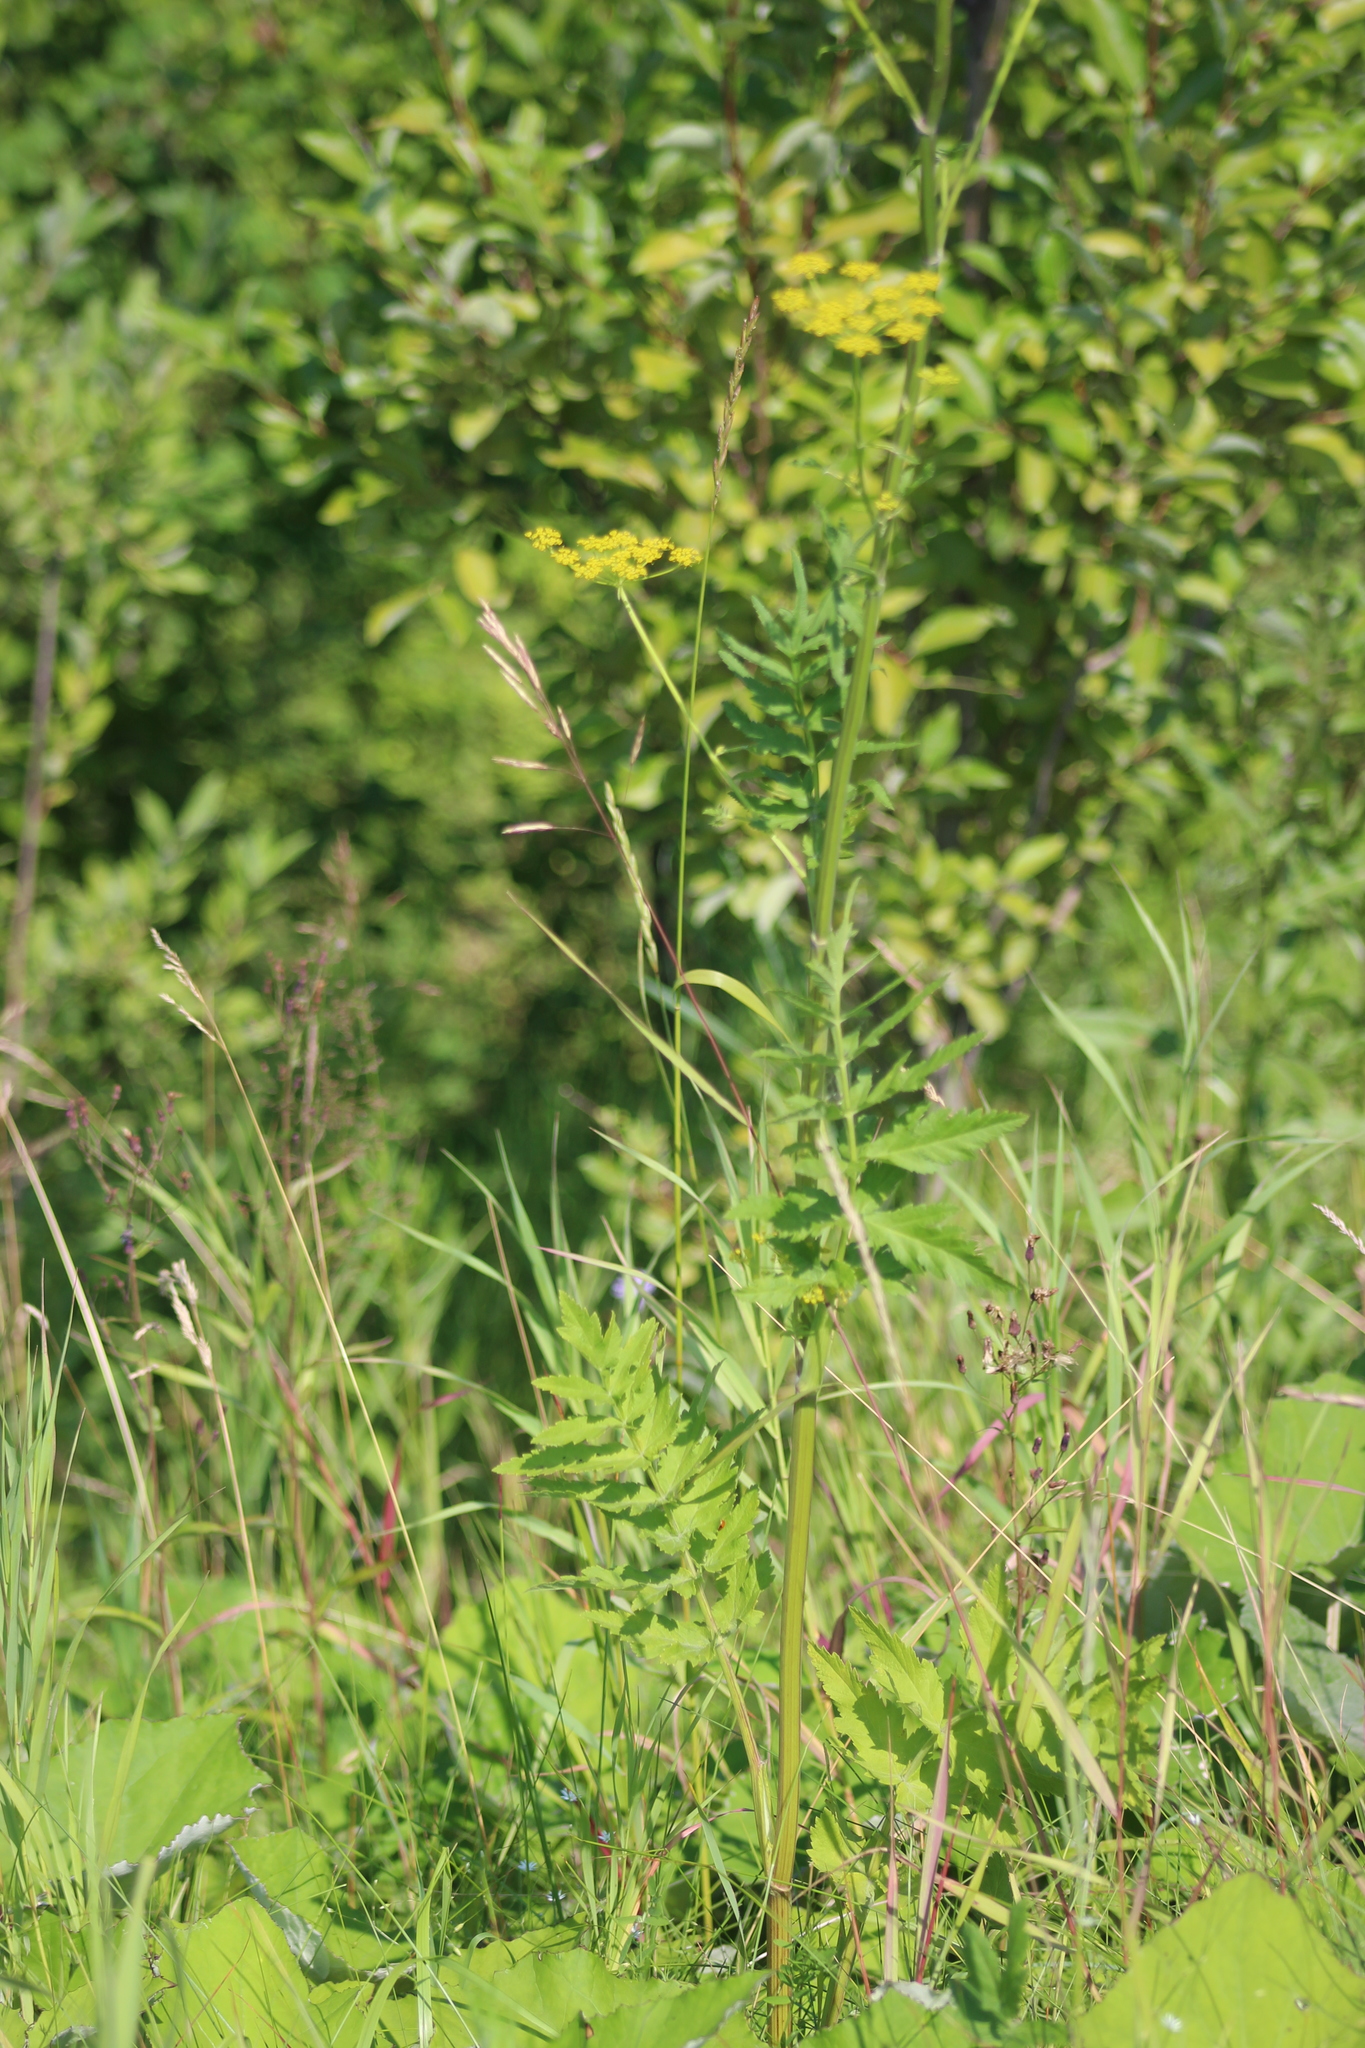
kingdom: Plantae
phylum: Tracheophyta
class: Magnoliopsida
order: Apiales
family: Apiaceae
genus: Pastinaca
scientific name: Pastinaca sativa
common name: Wild parsnip
